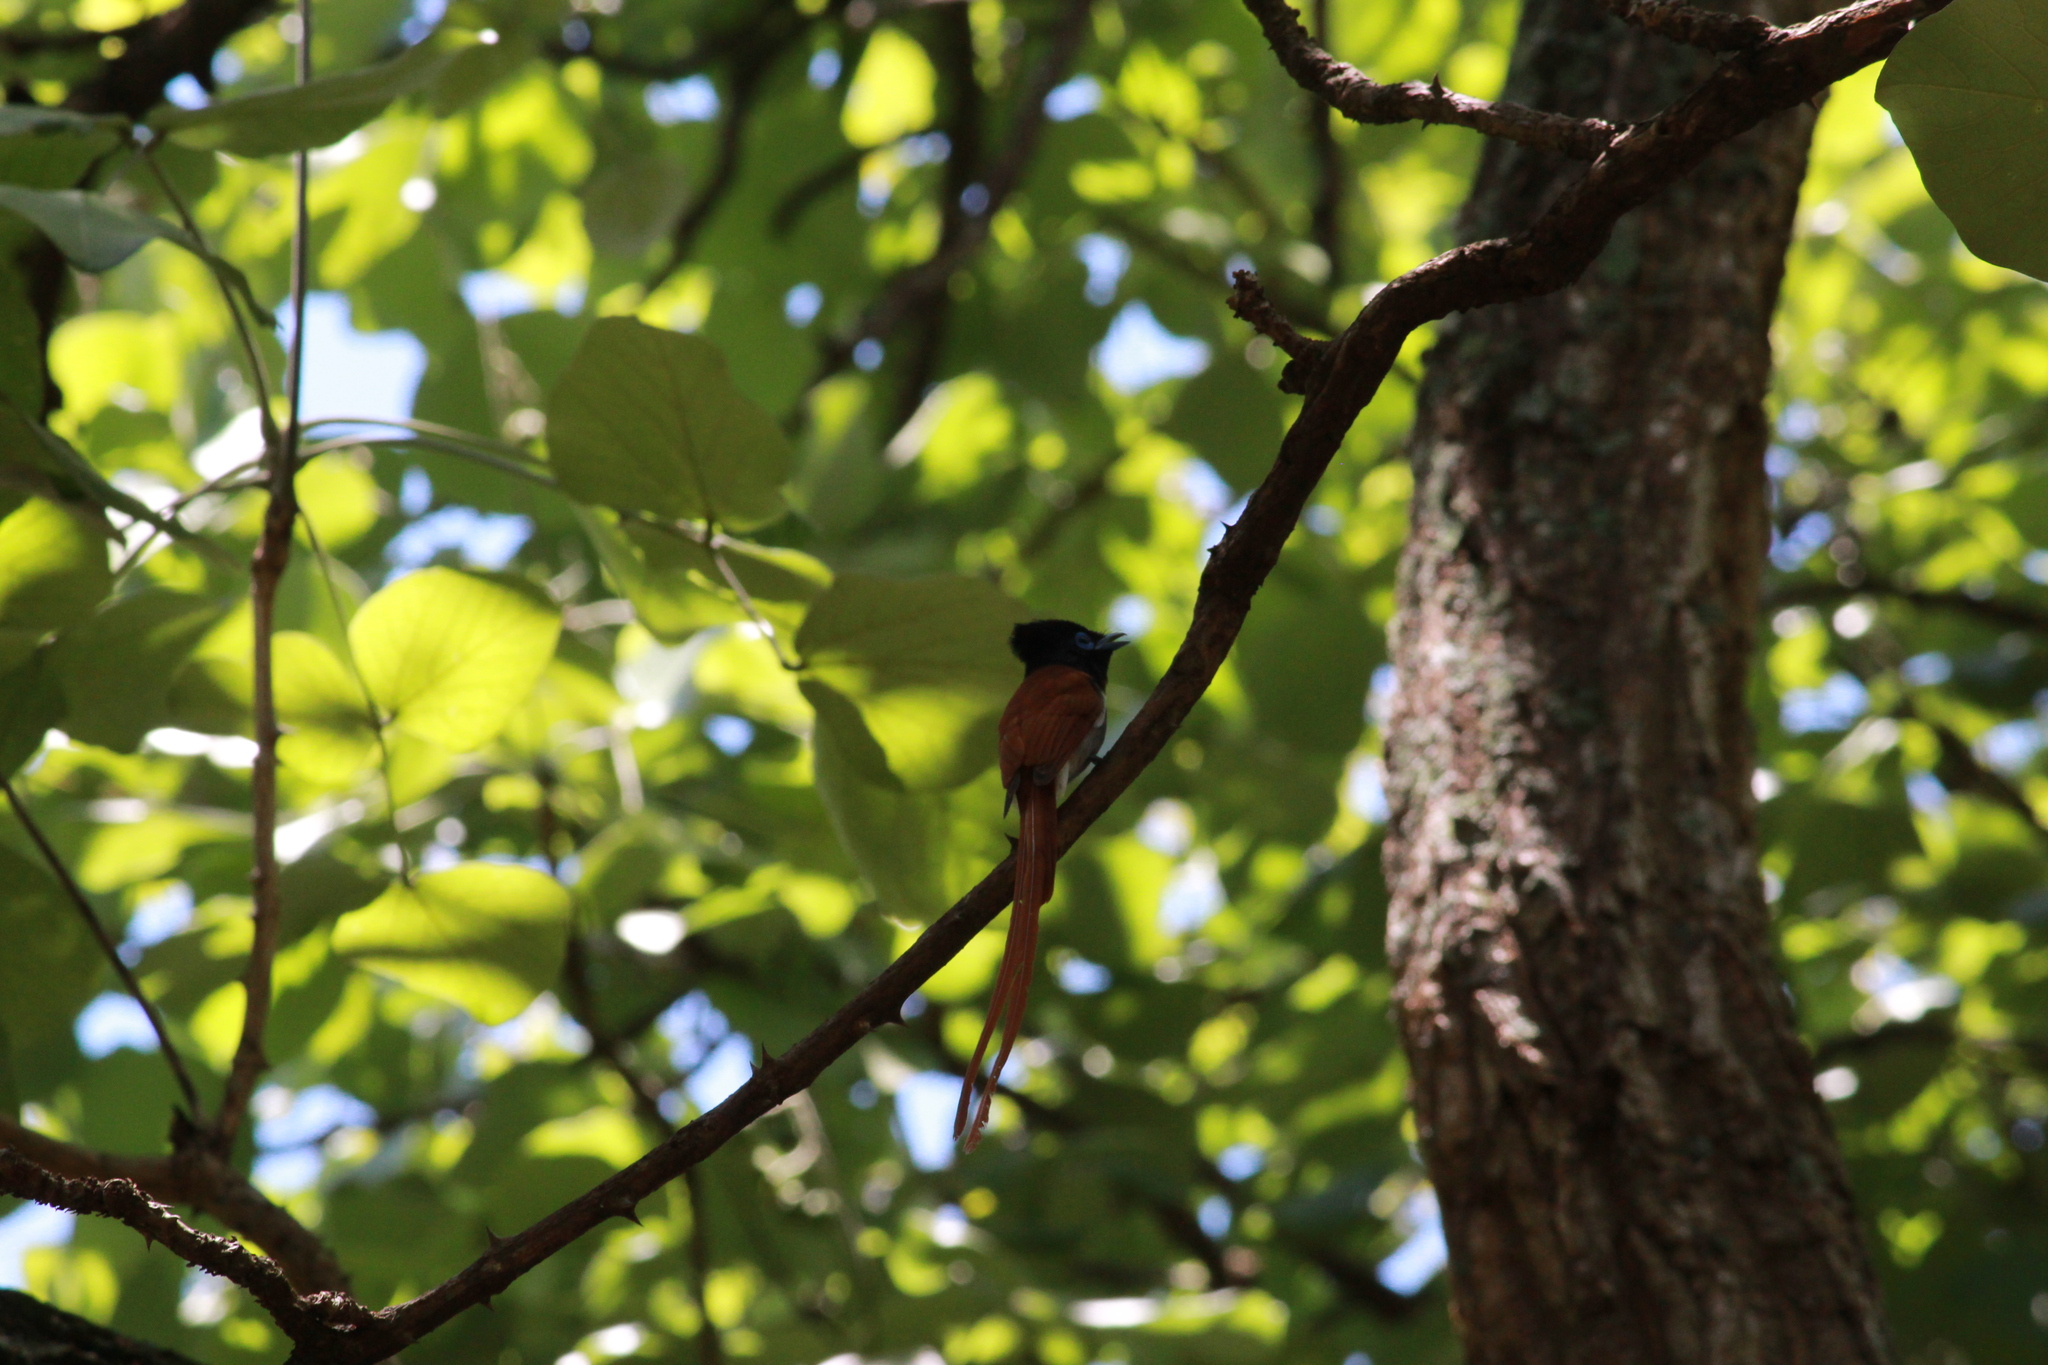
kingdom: Animalia
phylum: Chordata
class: Aves
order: Passeriformes
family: Monarchidae
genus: Terpsiphone
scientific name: Terpsiphone viridis
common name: African paradise flycatcher
